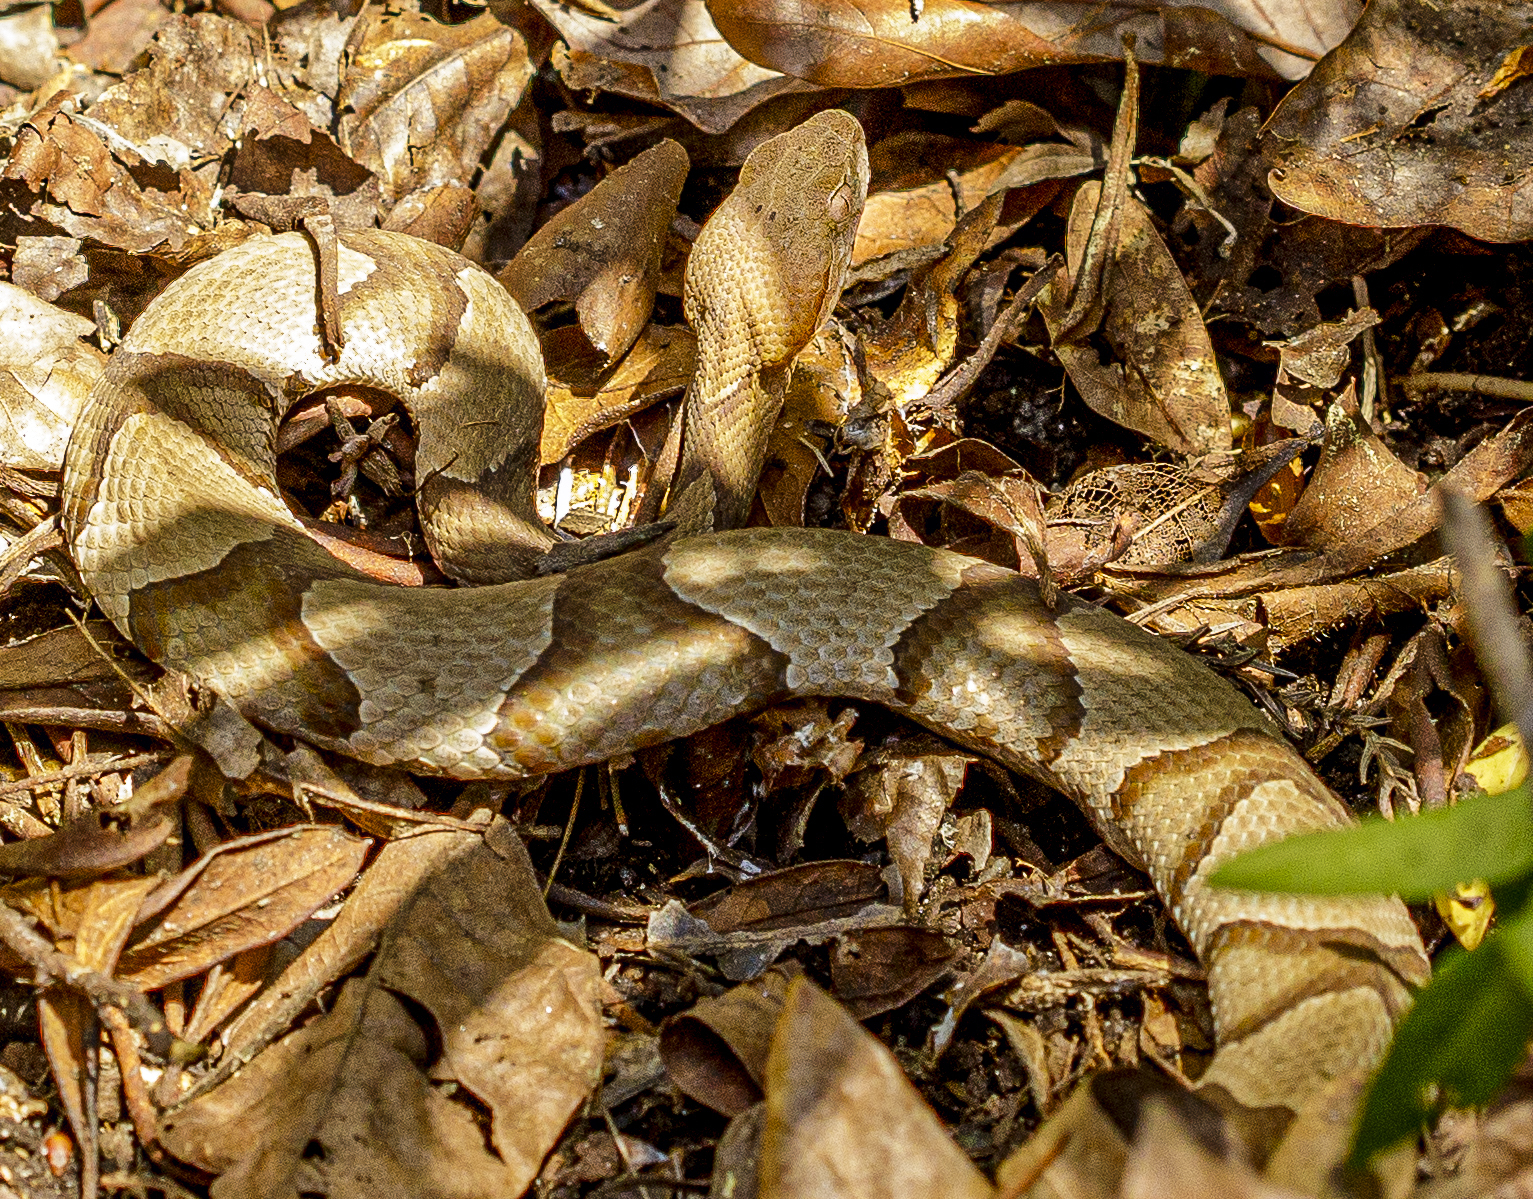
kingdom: Animalia
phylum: Chordata
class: Squamata
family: Viperidae
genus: Agkistrodon
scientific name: Agkistrodon contortrix
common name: Northern copperhead
